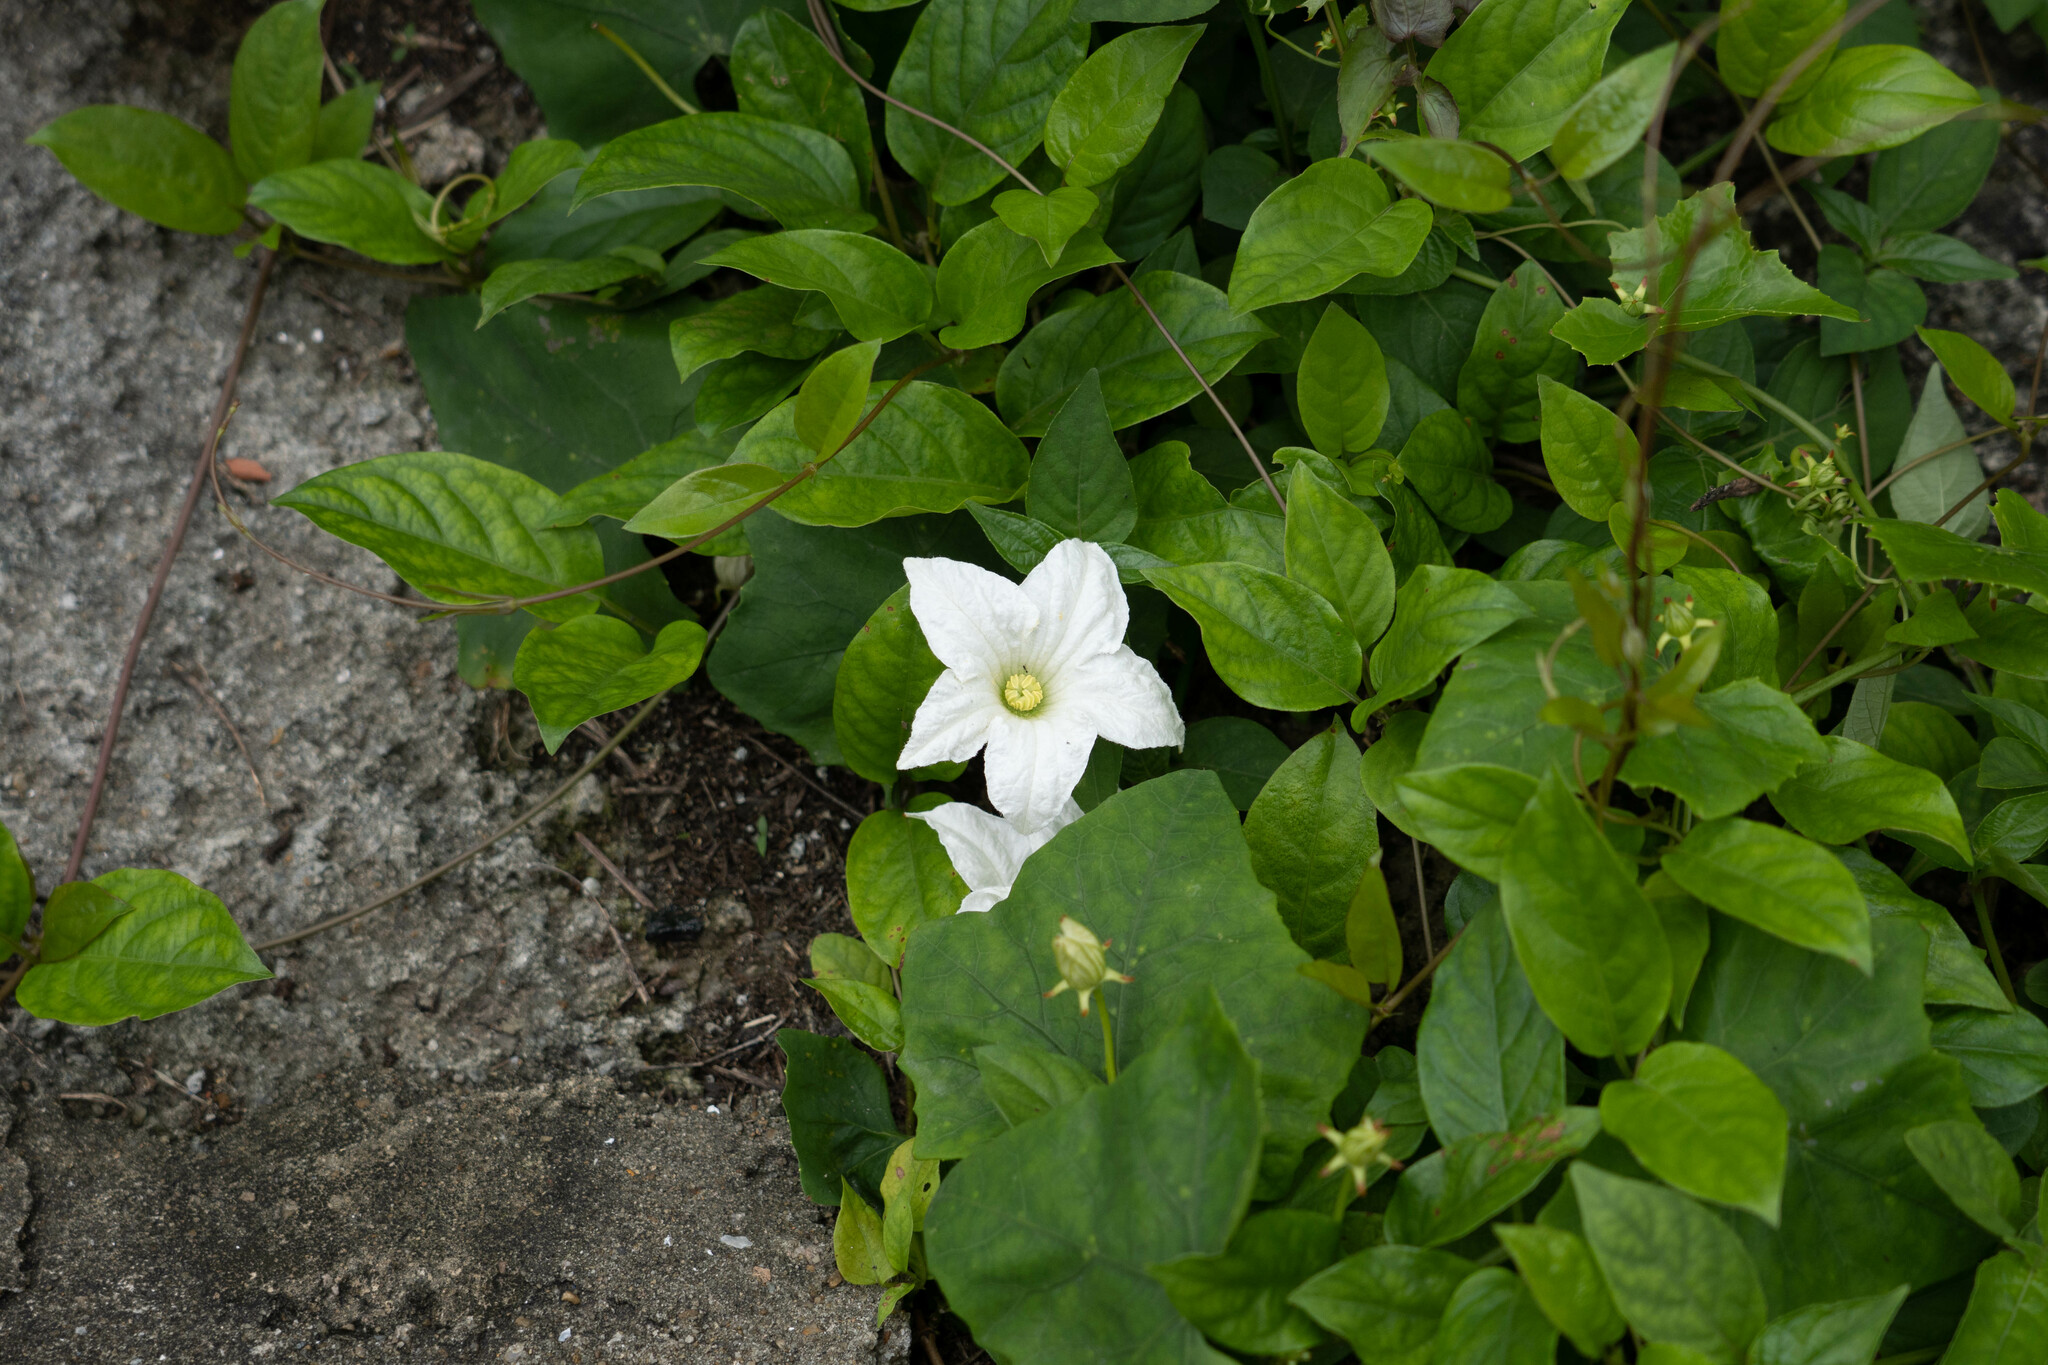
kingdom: Plantae
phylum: Tracheophyta
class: Magnoliopsida
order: Cucurbitales
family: Cucurbitaceae
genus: Coccinia
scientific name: Coccinia grandis
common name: Ivy gourd
